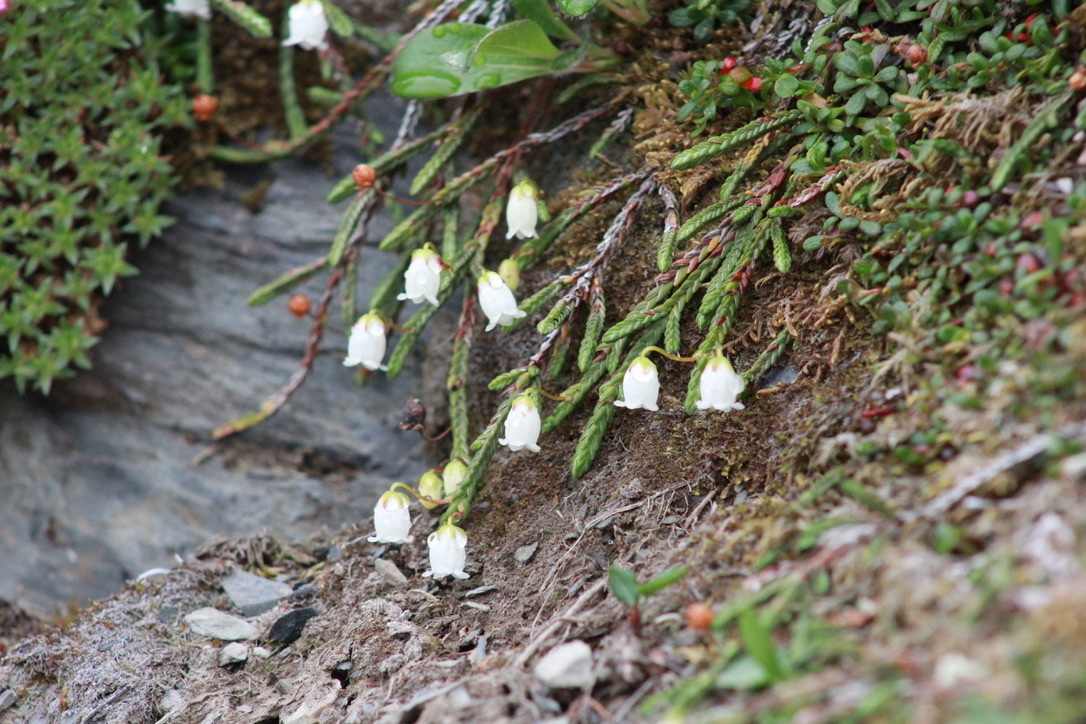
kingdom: Plantae
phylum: Tracheophyta
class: Magnoliopsida
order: Ericales
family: Ericaceae
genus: Cassiope
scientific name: Cassiope lycopodioides
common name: Clubmoss mountain heather
